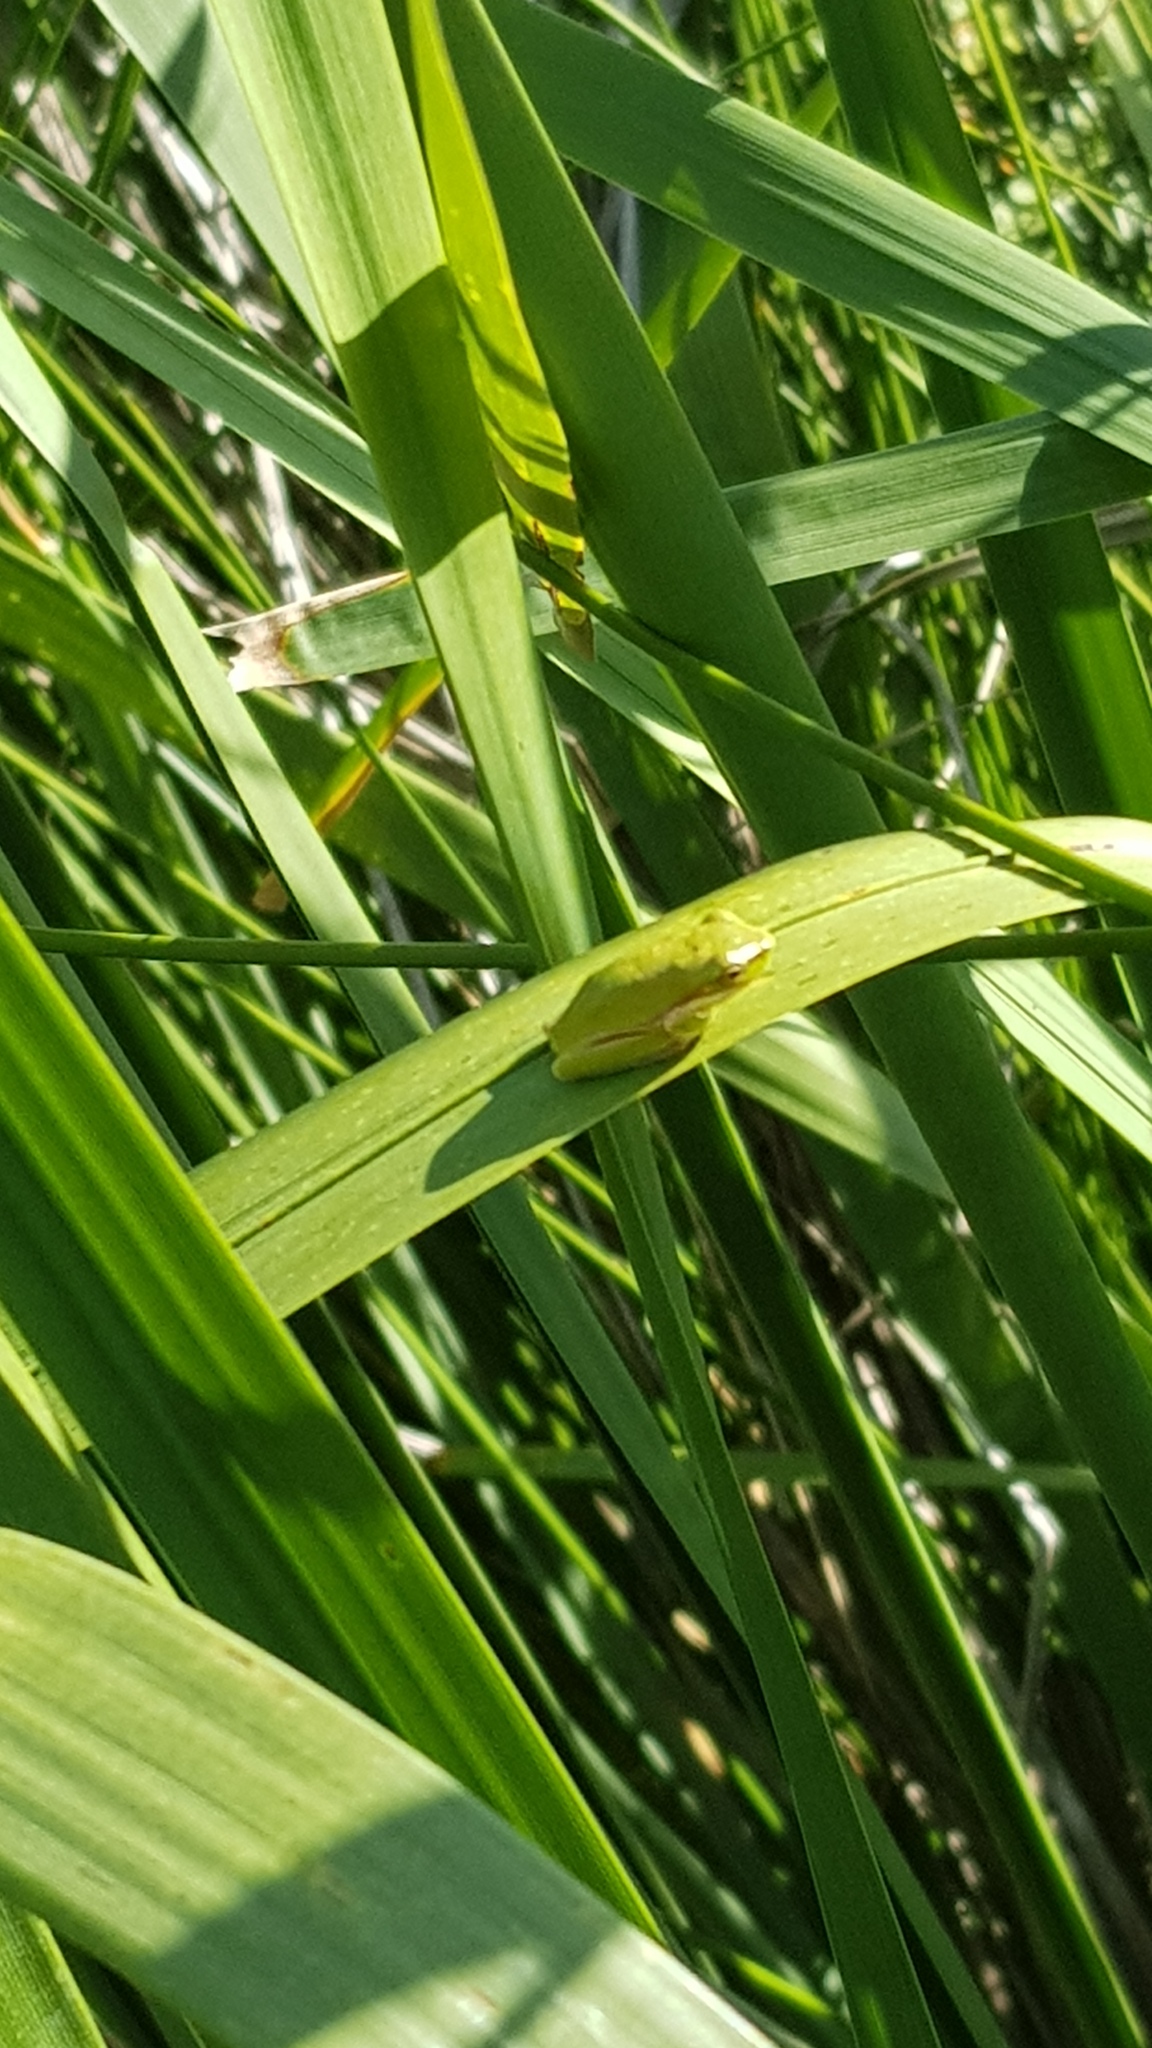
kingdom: Animalia
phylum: Chordata
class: Amphibia
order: Anura
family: Pelodryadidae
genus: Litoria
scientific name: Litoria fallax
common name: Eastern dwarf treefrog
